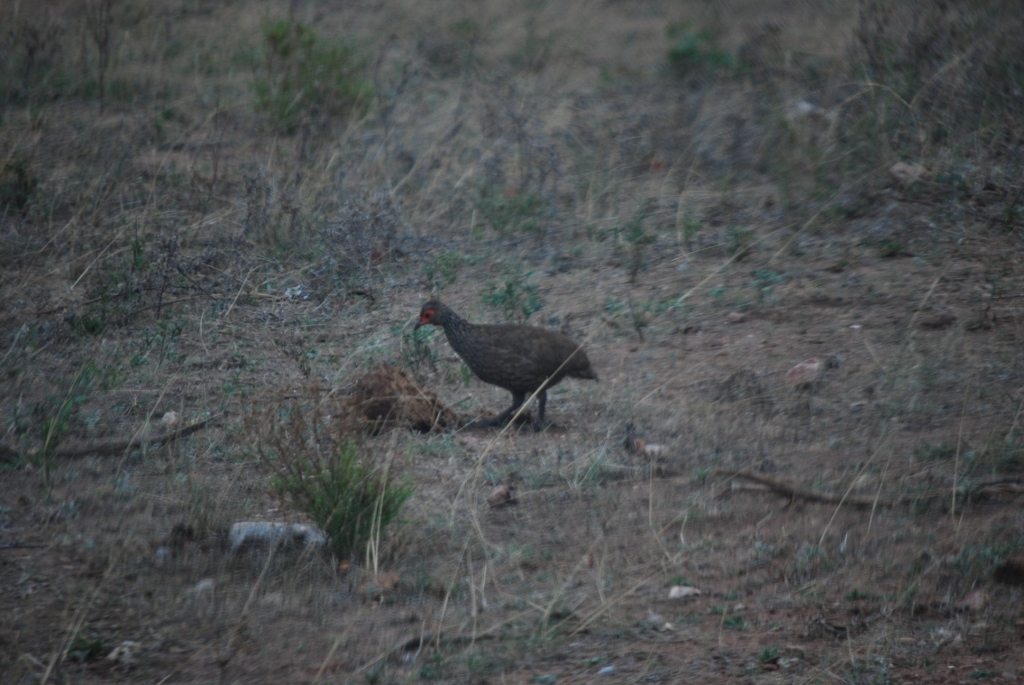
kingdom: Animalia
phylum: Chordata
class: Aves
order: Galliformes
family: Phasianidae
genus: Pternistis
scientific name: Pternistis swainsonii
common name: Swainson's spurfowl
